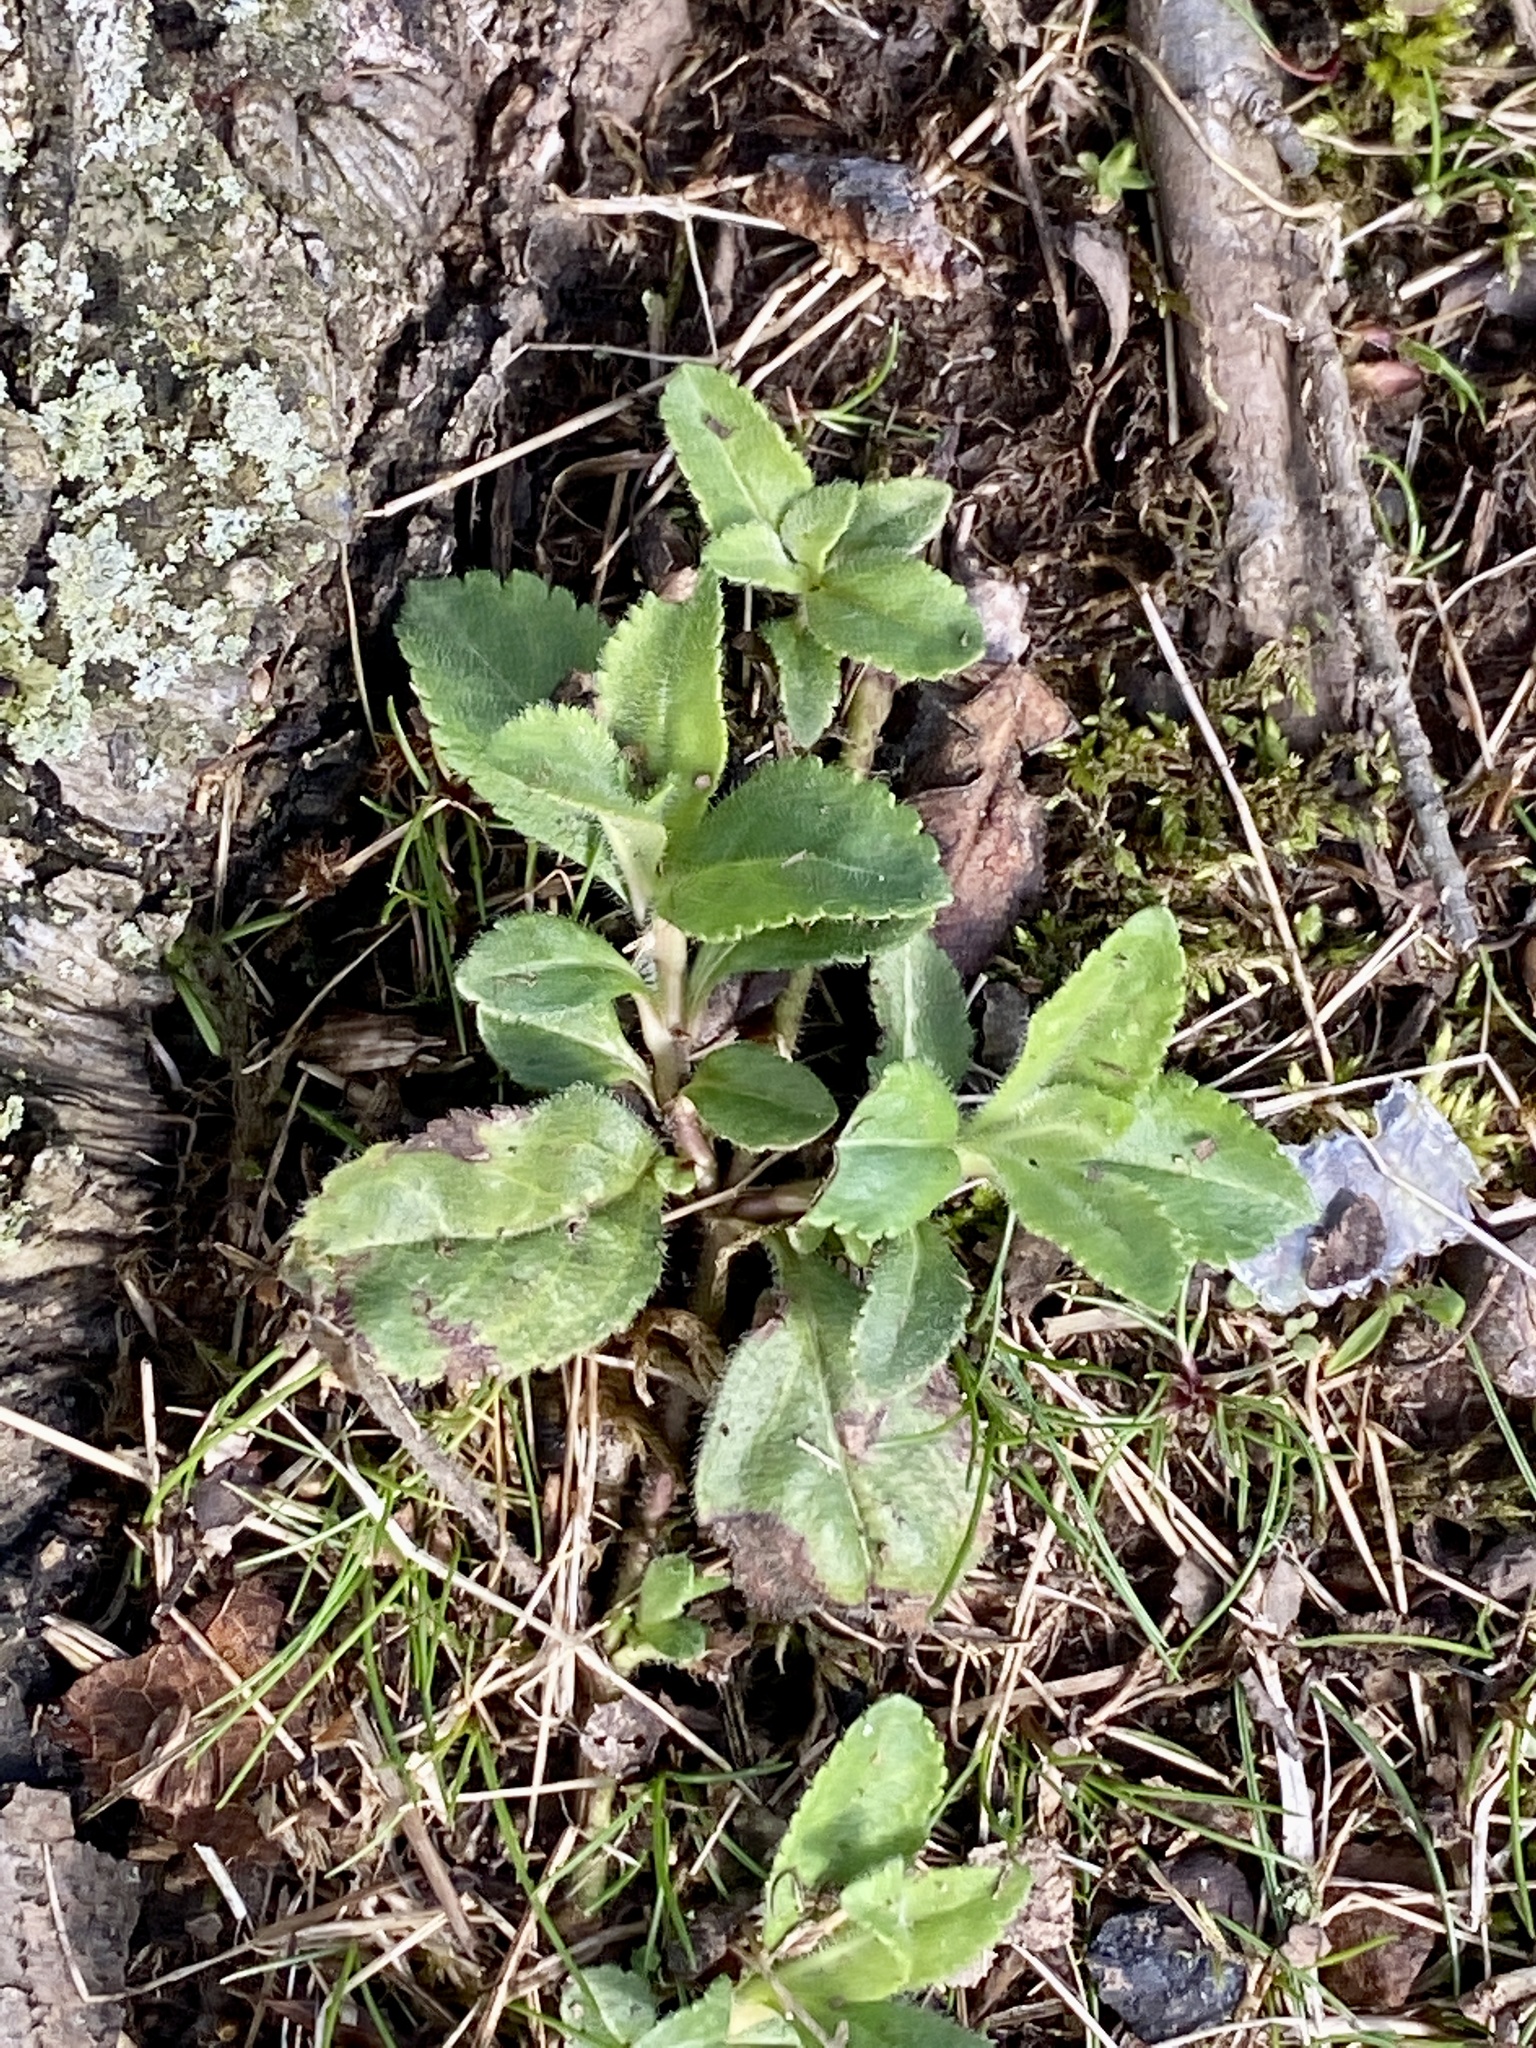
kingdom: Plantae
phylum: Tracheophyta
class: Magnoliopsida
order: Lamiales
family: Plantaginaceae
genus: Veronica
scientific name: Veronica officinalis
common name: Common speedwell
